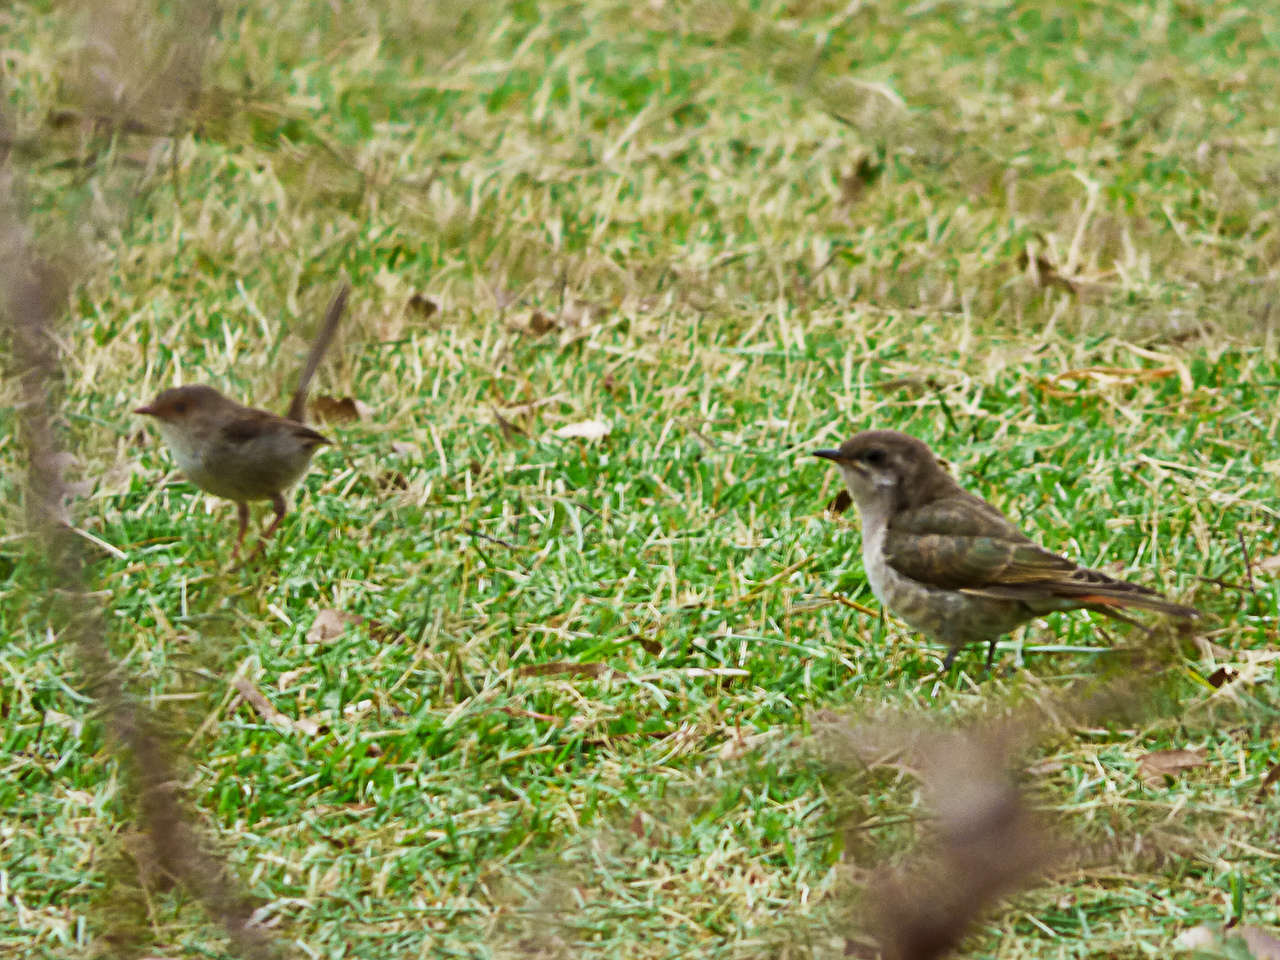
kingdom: Animalia
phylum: Chordata
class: Aves
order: Cuculiformes
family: Cuculidae
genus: Chrysococcyx
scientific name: Chrysococcyx basalis
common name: Horsfield's bronze cuckoo
